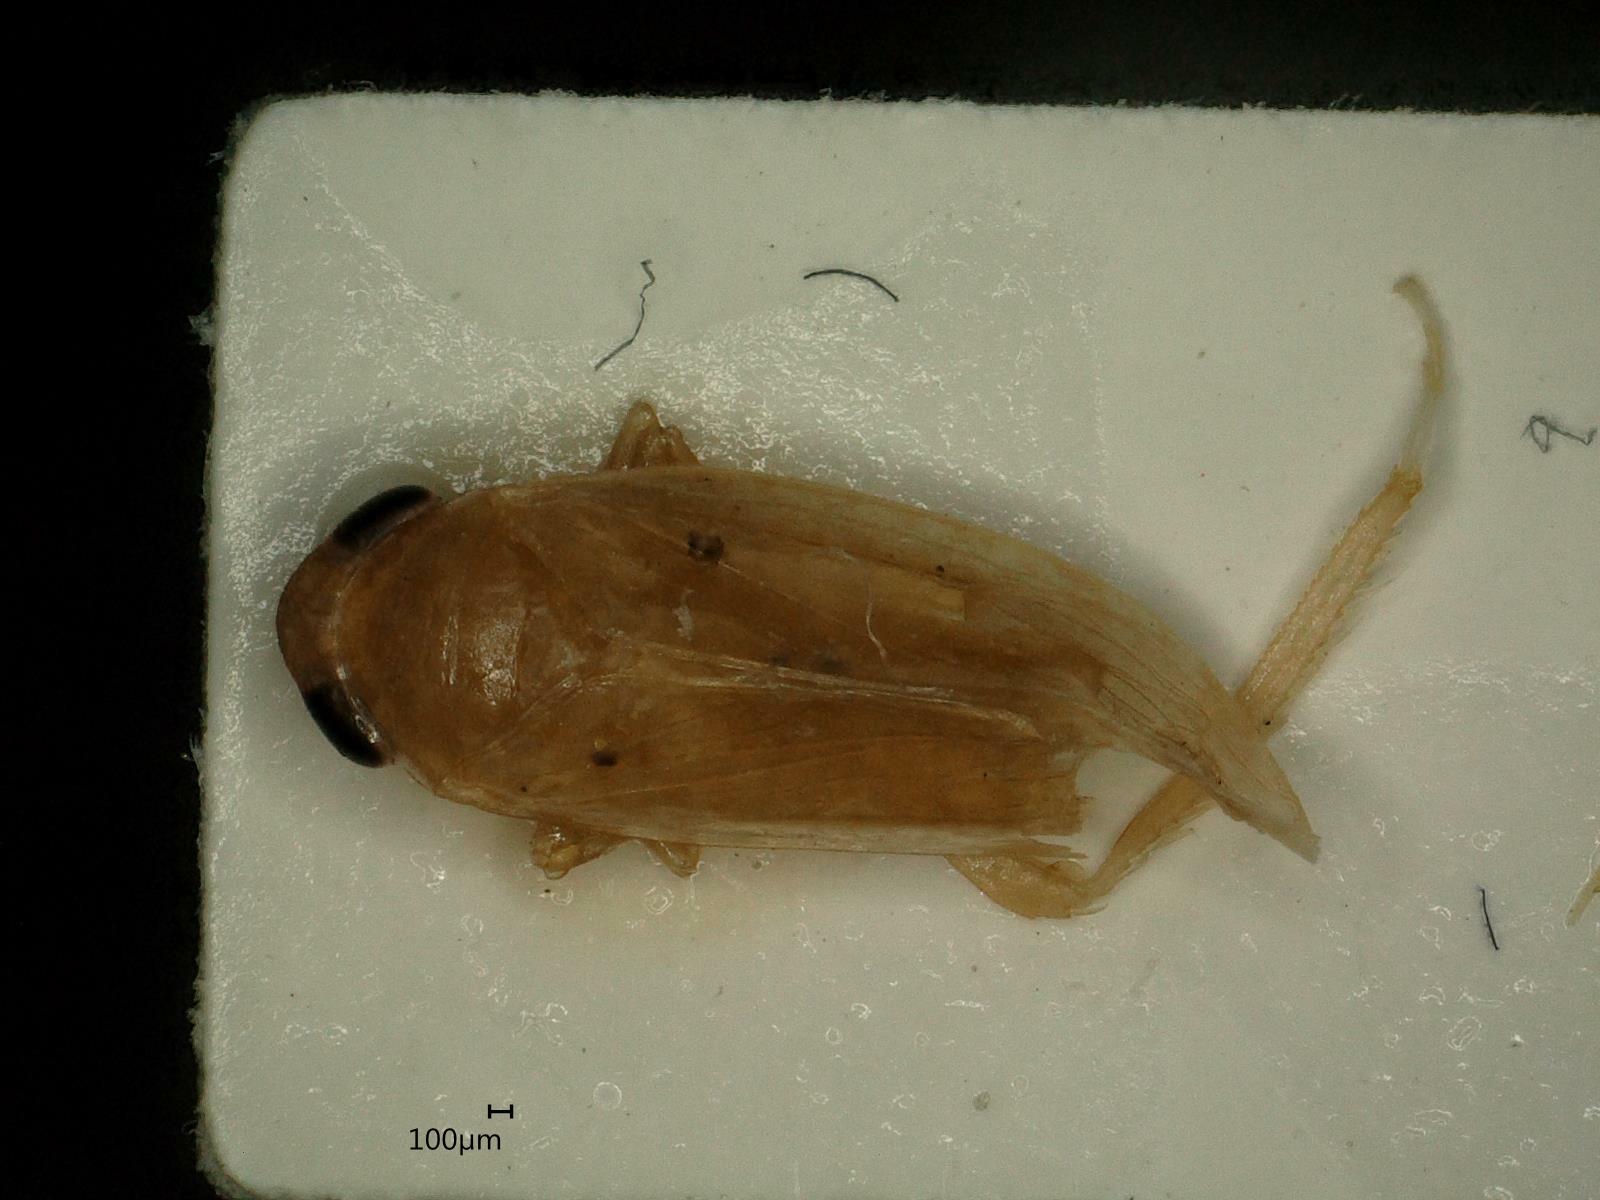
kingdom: Animalia
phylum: Arthropoda
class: Insecta
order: Hemiptera
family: Cicadellidae
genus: Orientus
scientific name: Orientus ishidae
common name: Japanese leafhopper
